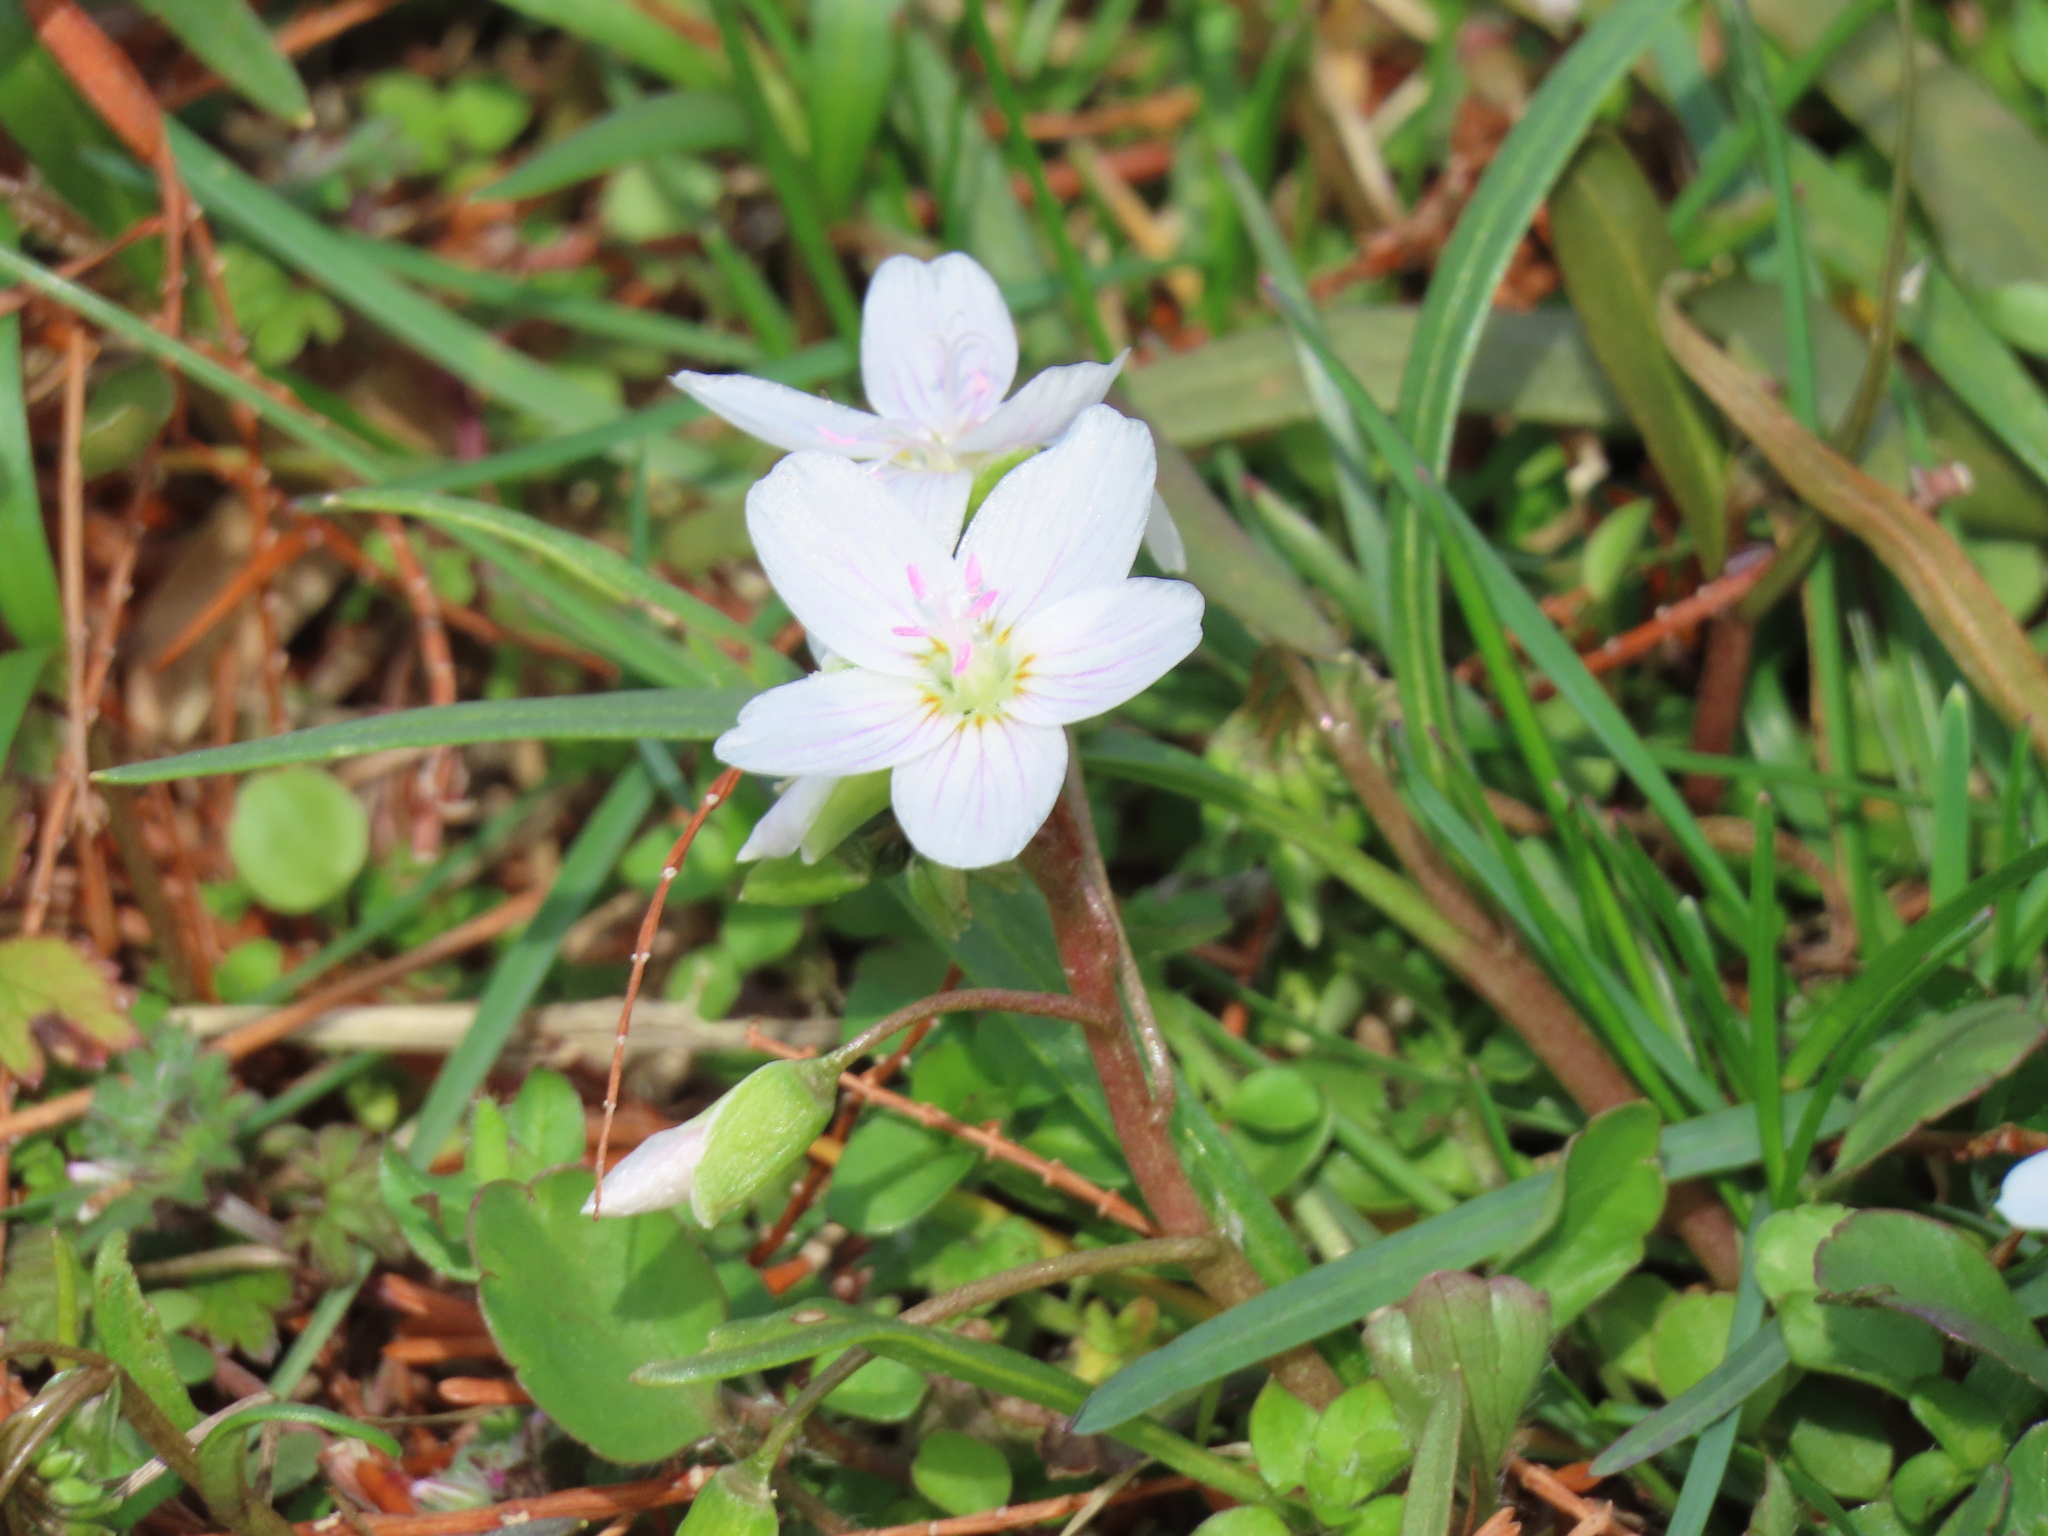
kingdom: Plantae
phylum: Tracheophyta
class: Magnoliopsida
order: Caryophyllales
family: Montiaceae
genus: Claytonia
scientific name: Claytonia virginica
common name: Virginia springbeauty
